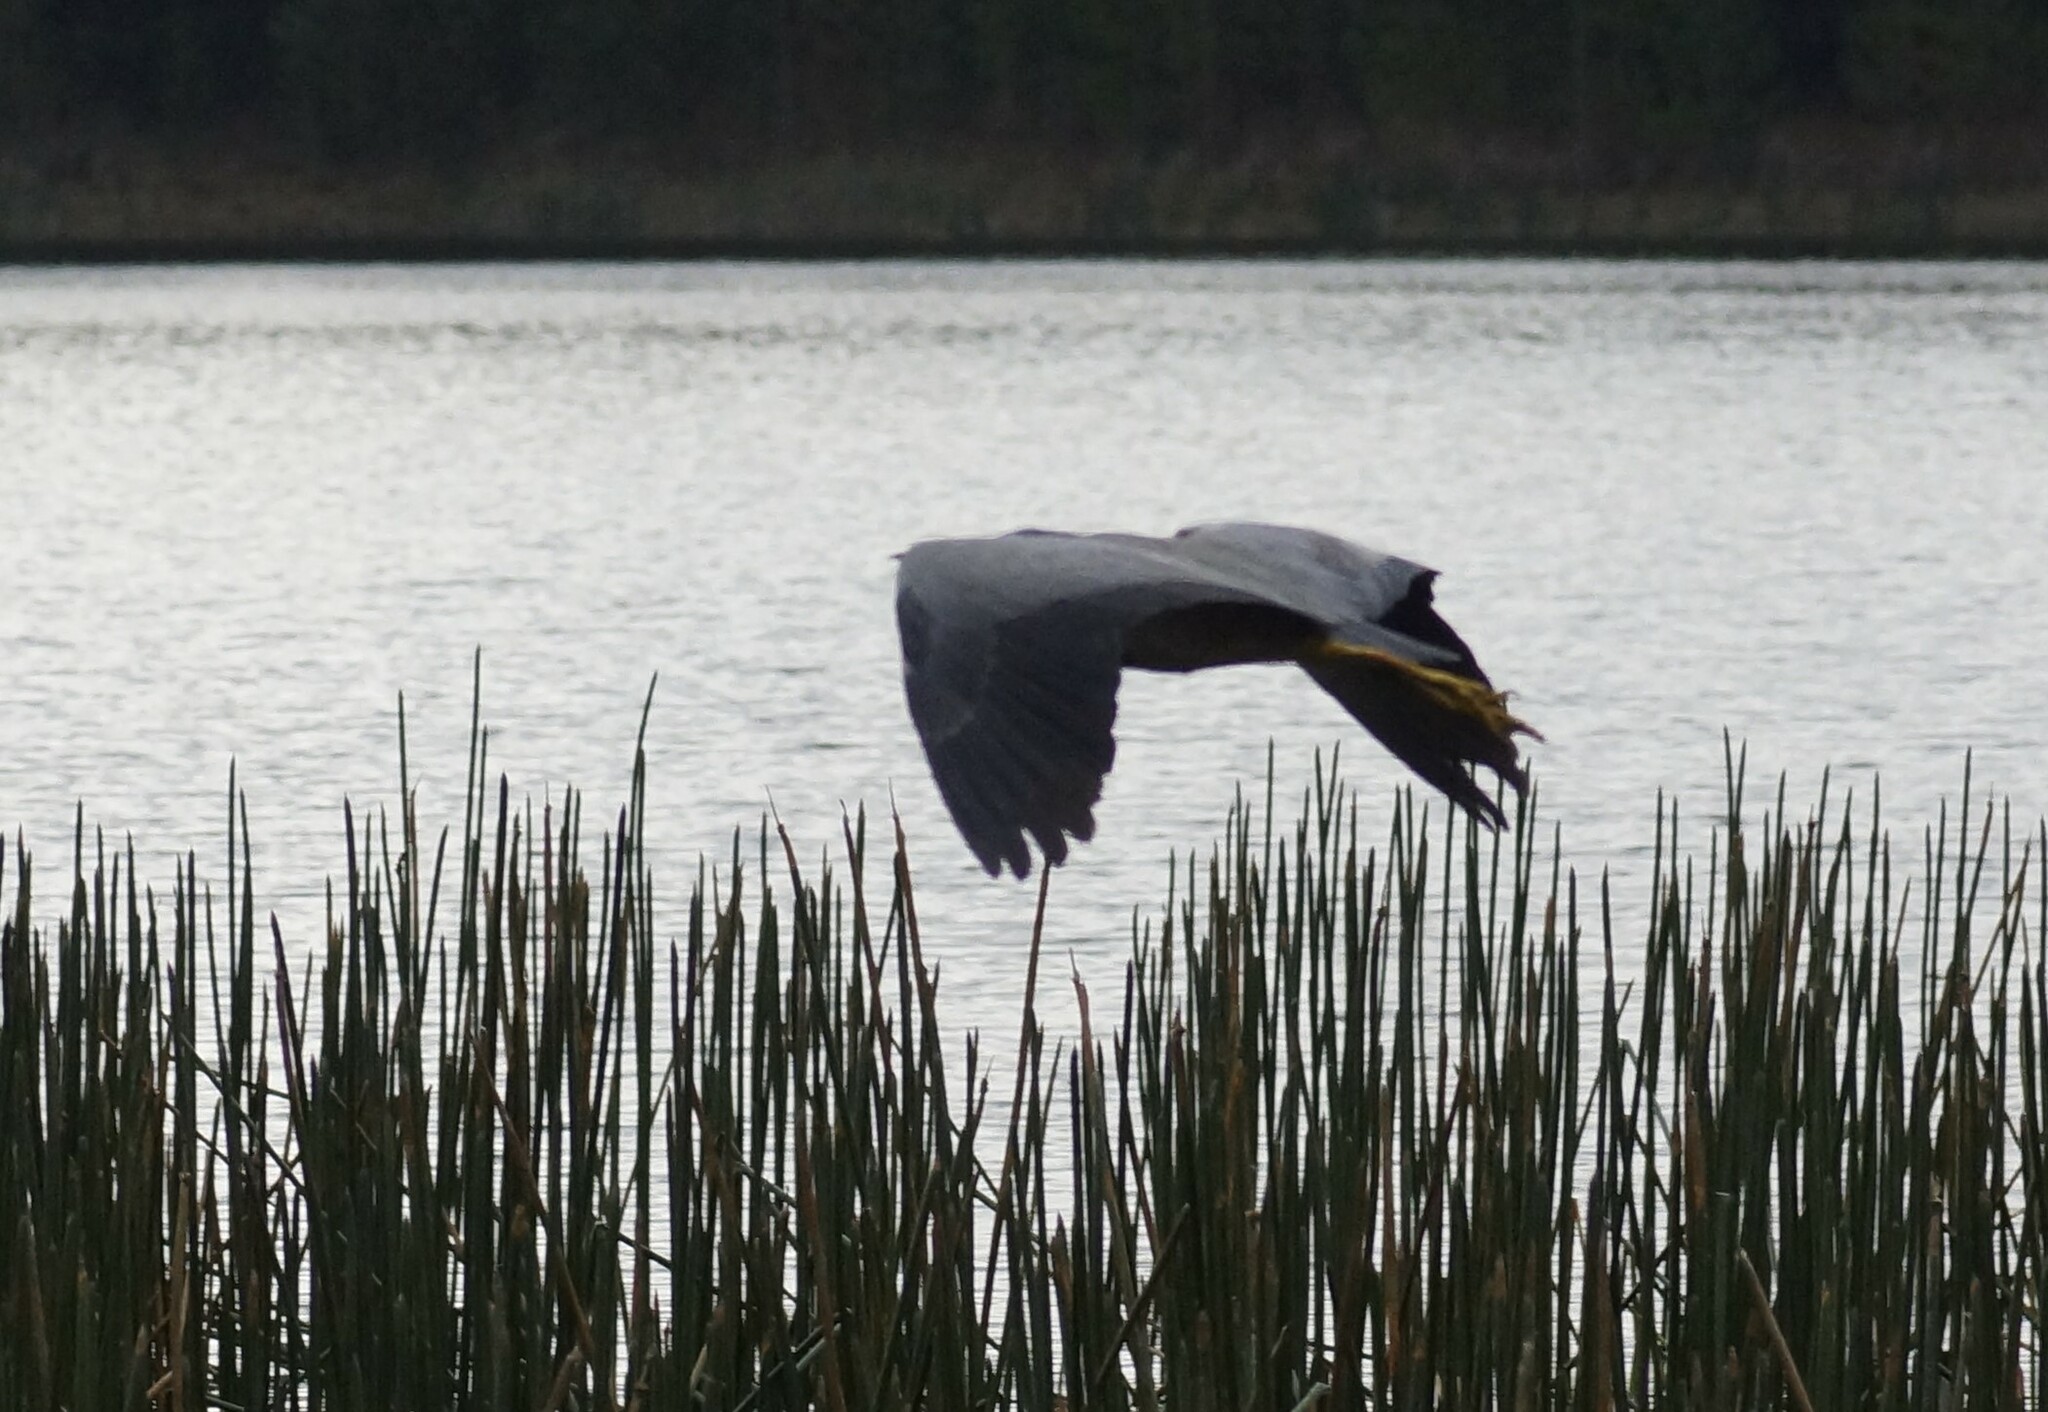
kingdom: Animalia
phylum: Chordata
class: Aves
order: Pelecaniformes
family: Ardeidae
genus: Egretta
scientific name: Egretta novaehollandiae
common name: White-faced heron
